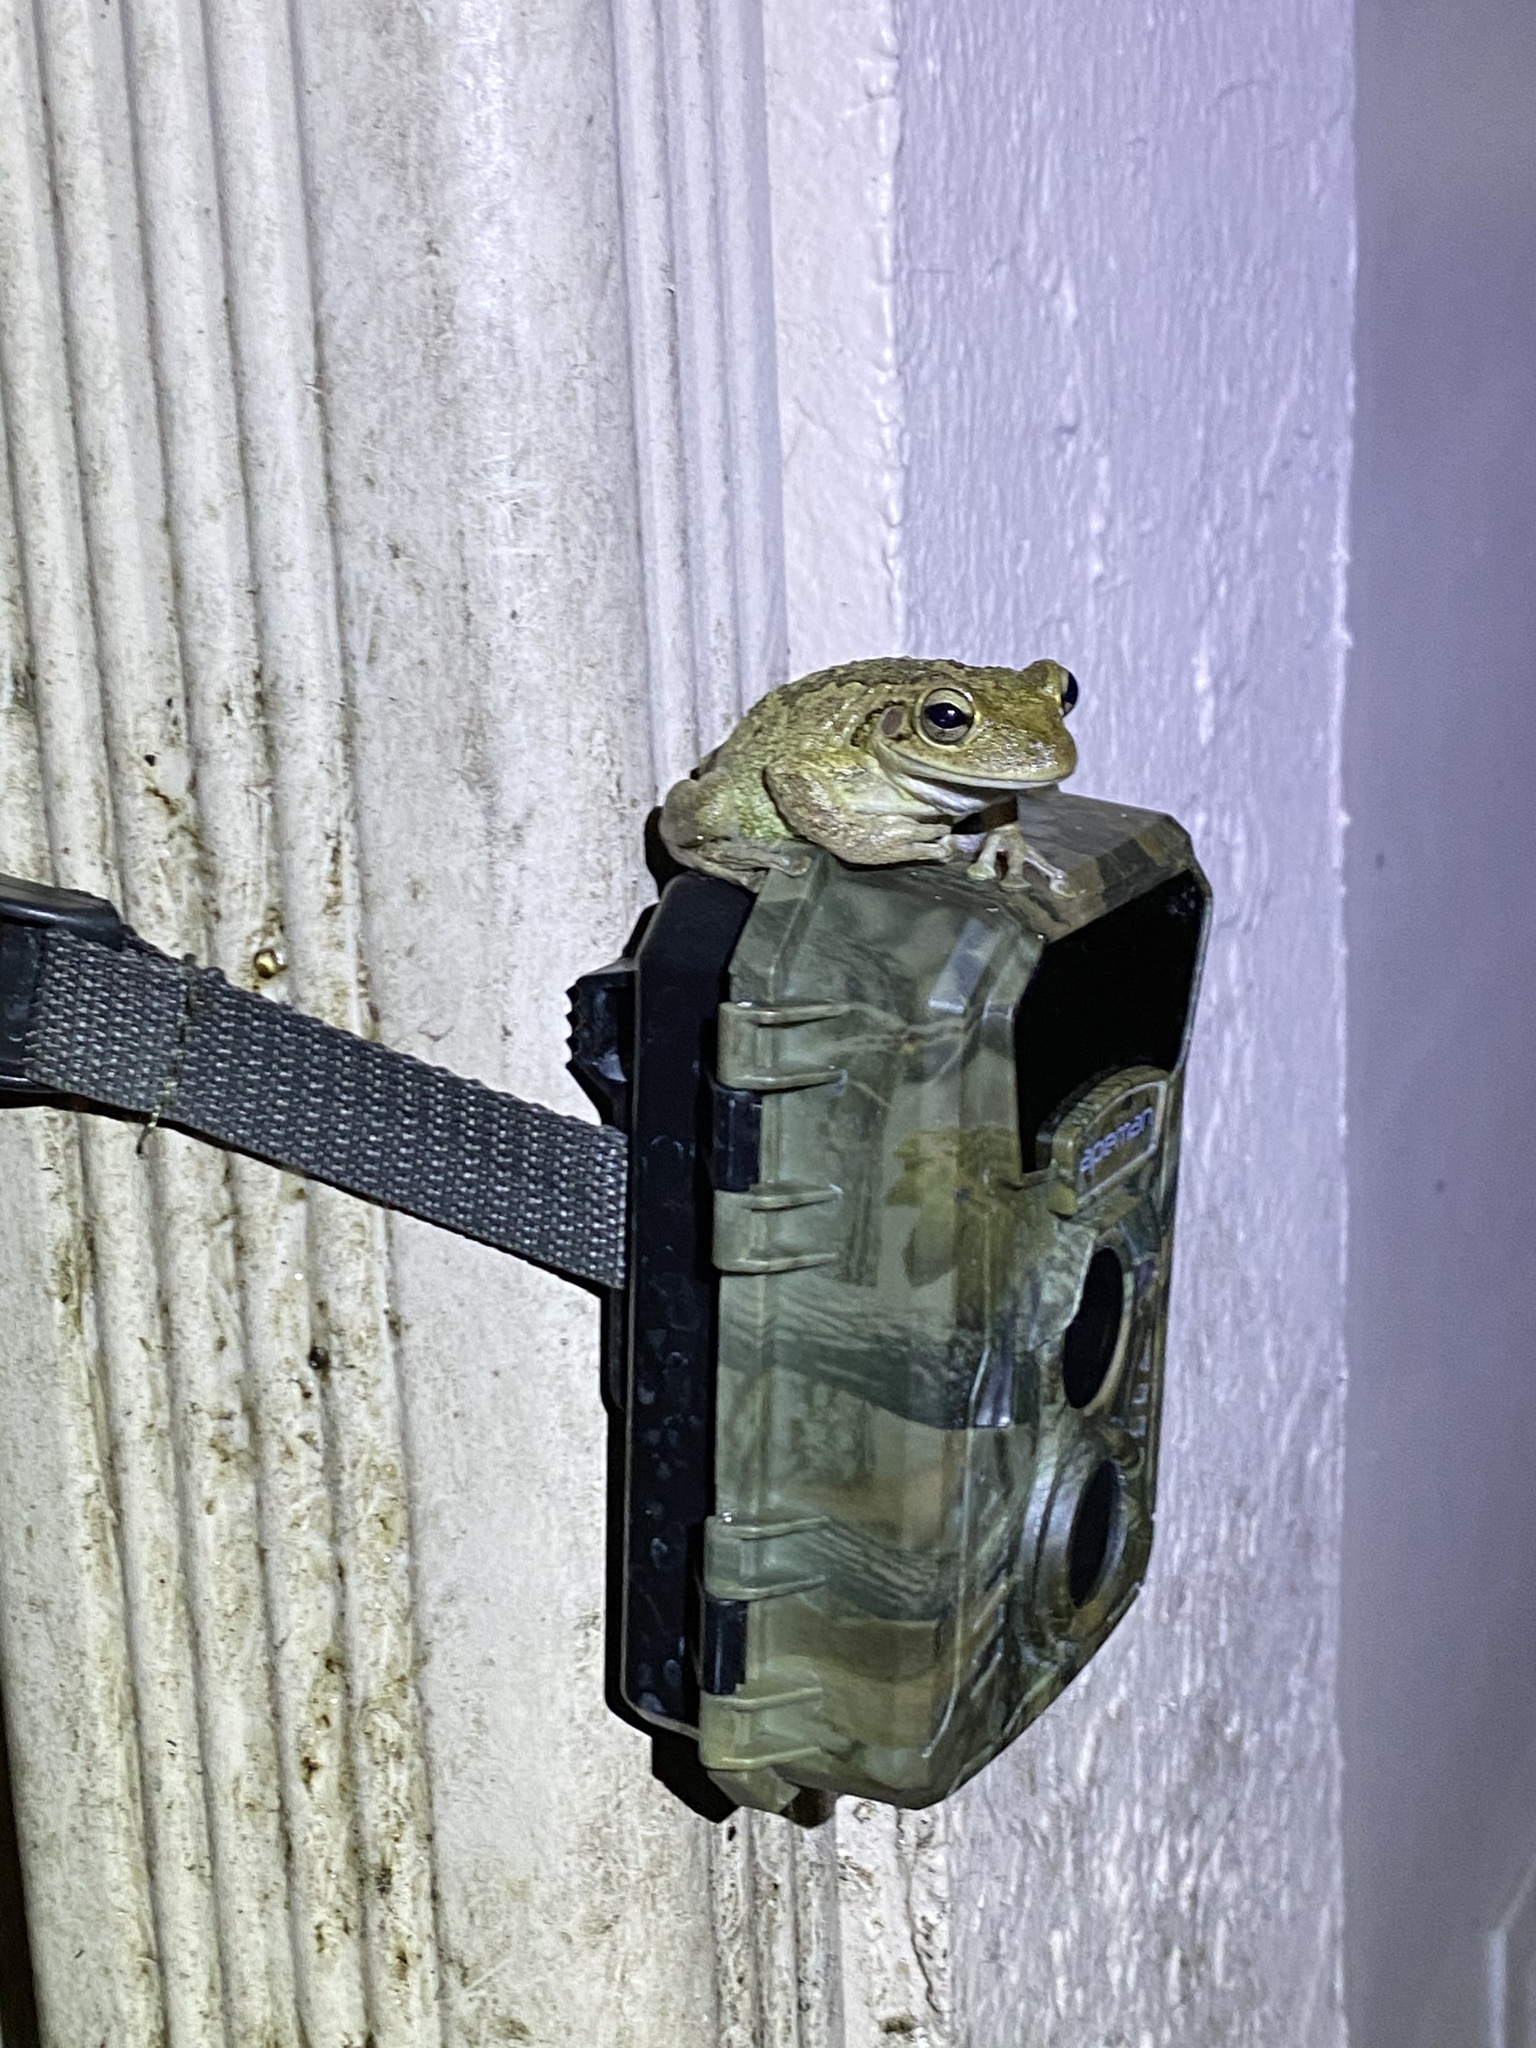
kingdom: Animalia
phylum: Chordata
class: Amphibia
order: Anura
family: Hylidae
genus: Osteopilus
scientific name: Osteopilus septentrionalis
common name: Cuban treefrog
